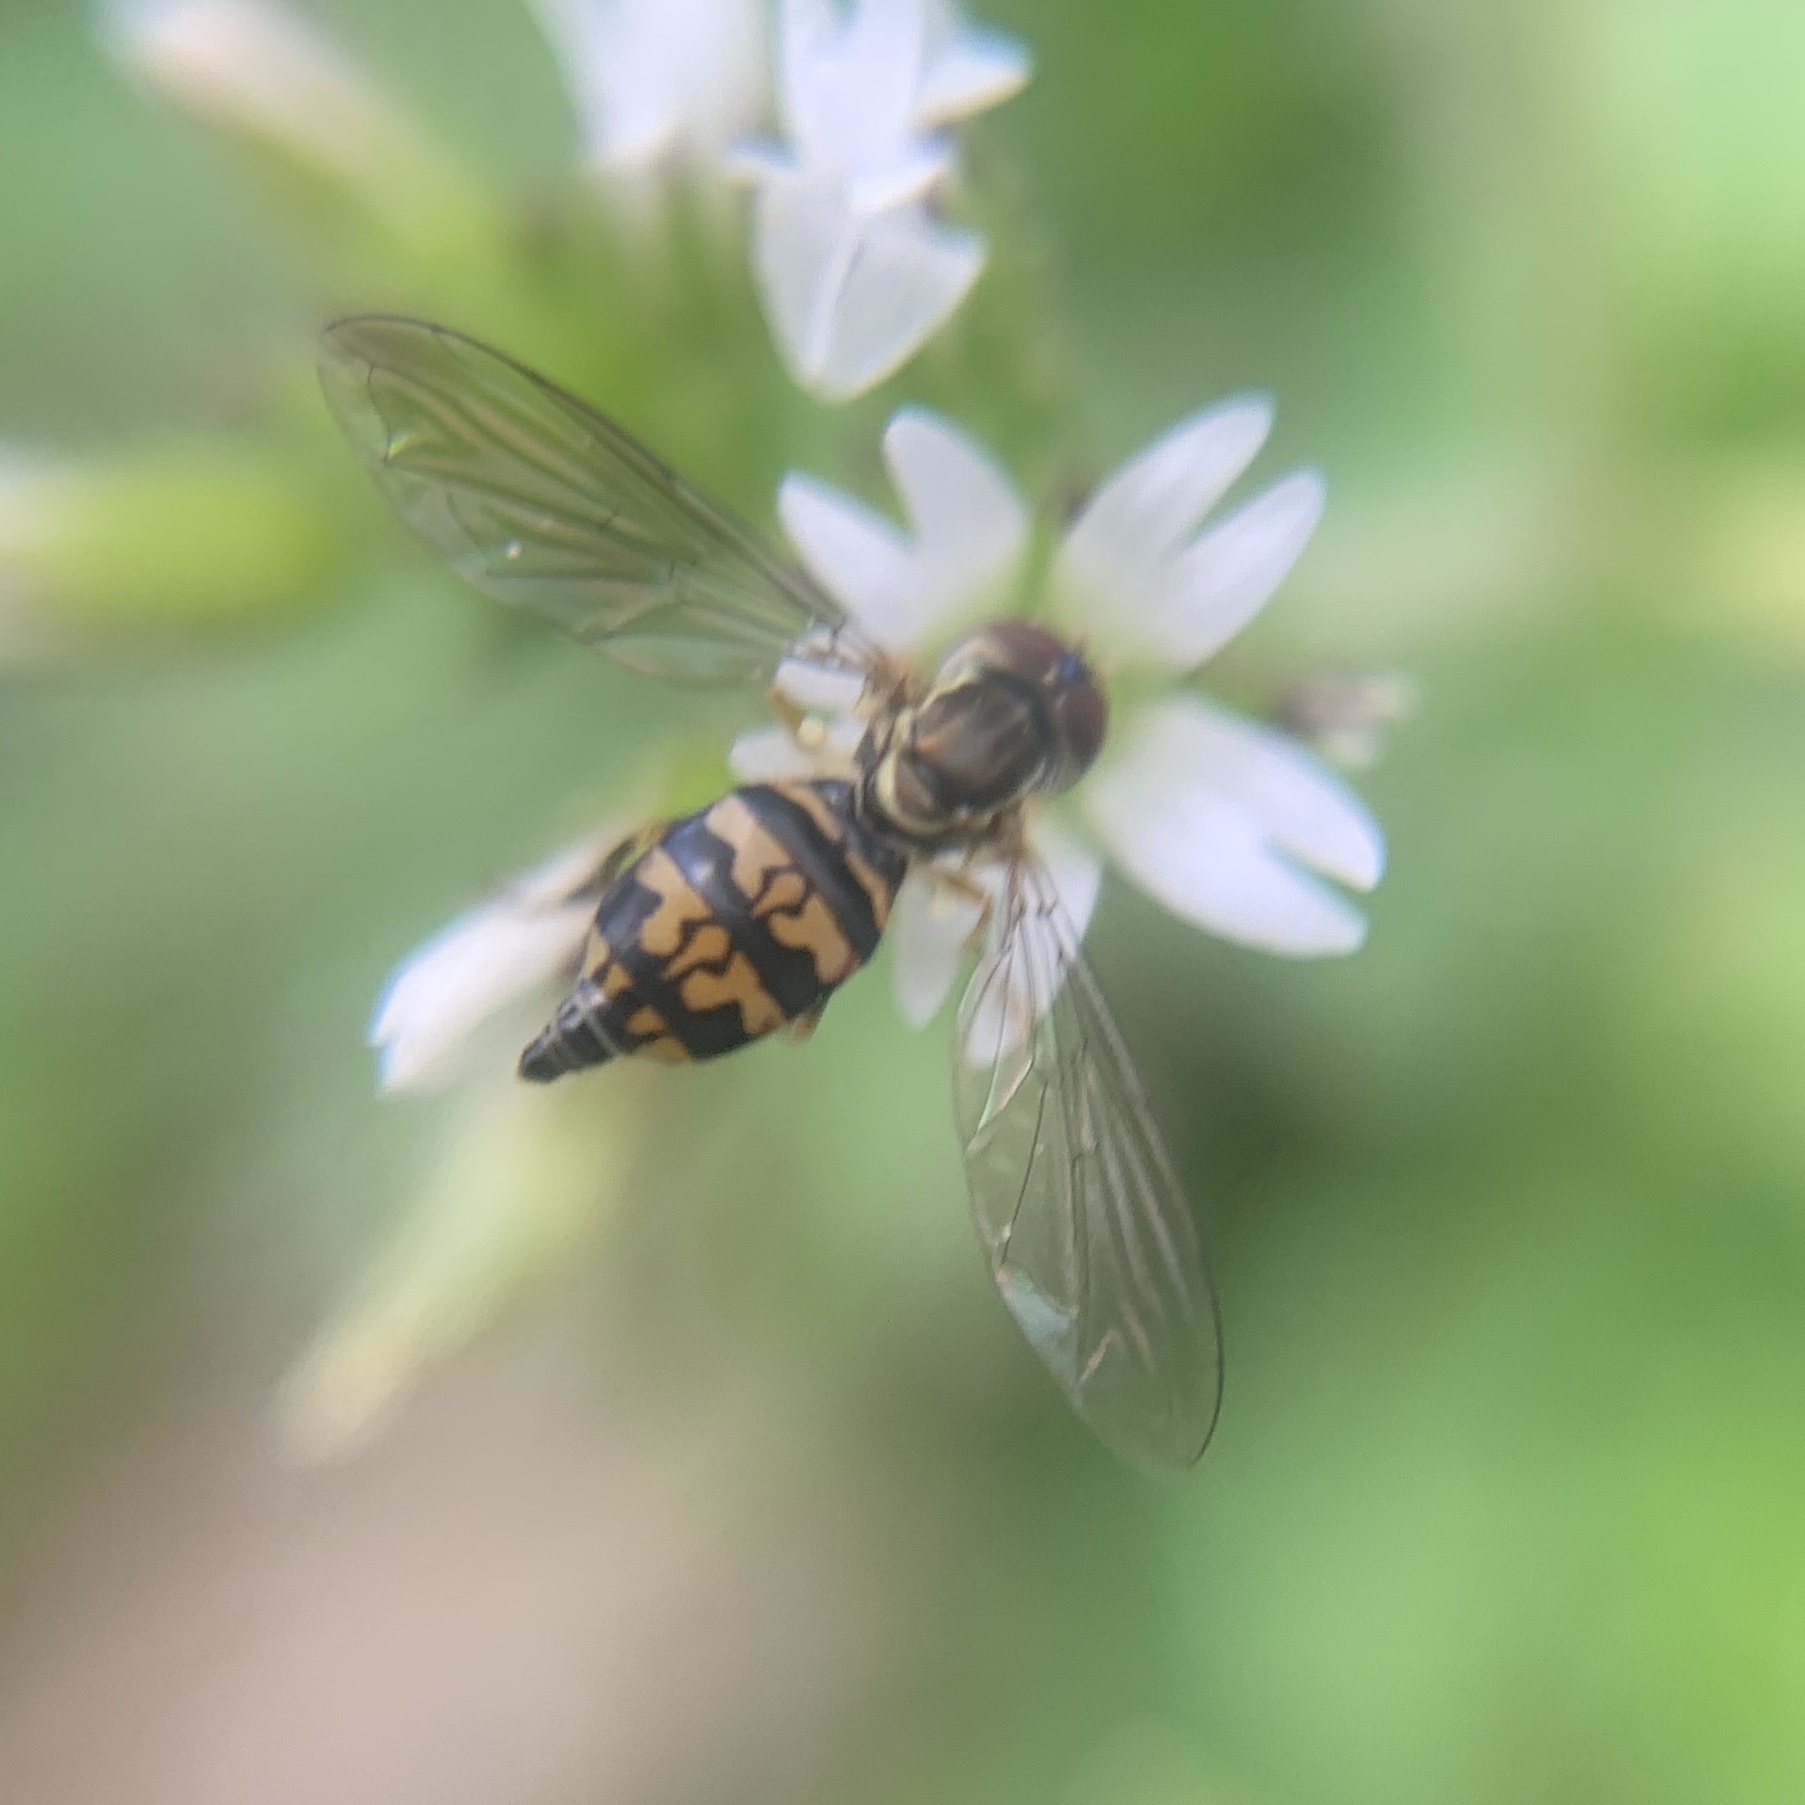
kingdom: Animalia
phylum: Arthropoda
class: Insecta
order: Diptera
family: Syrphidae
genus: Toxomerus
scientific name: Toxomerus geminatus
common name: Eastern calligrapher
